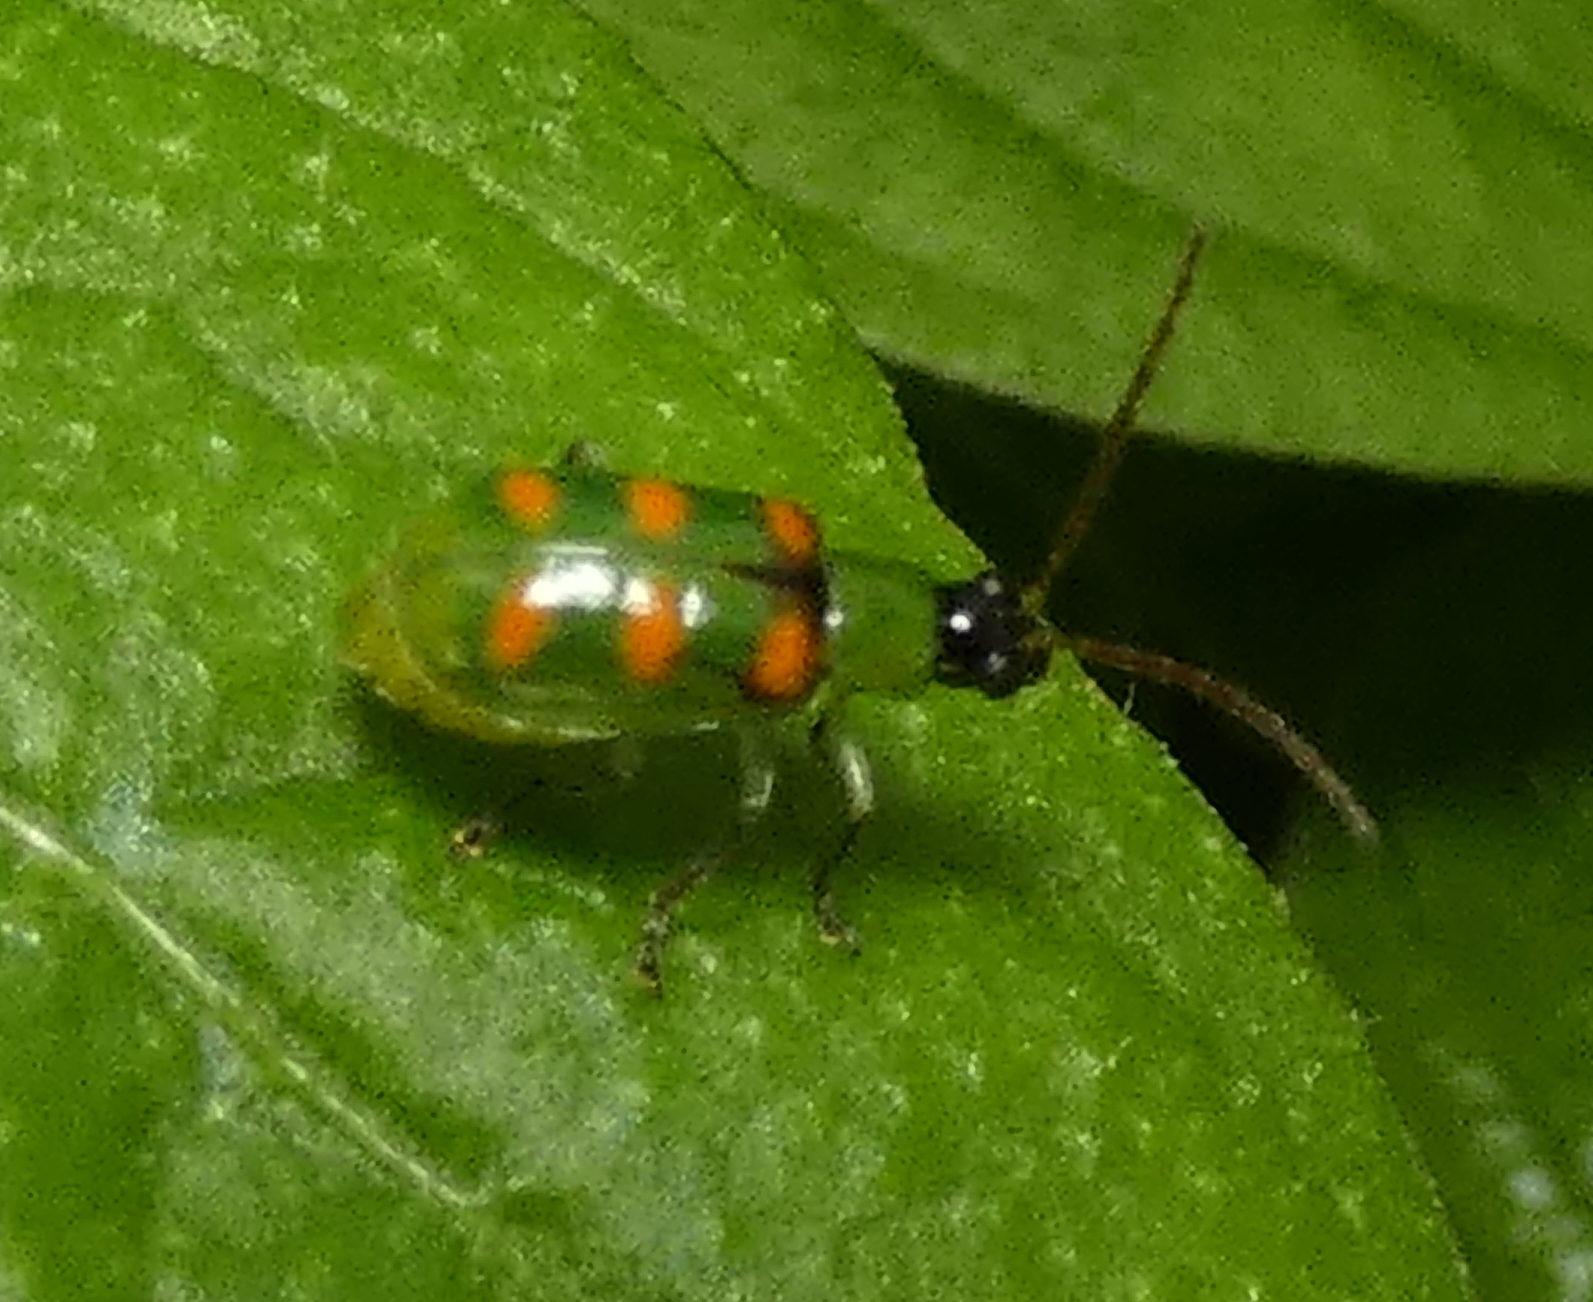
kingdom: Animalia
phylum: Arthropoda
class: Insecta
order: Coleoptera
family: Chrysomelidae
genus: Diabrotica
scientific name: Diabrotica speciosa
